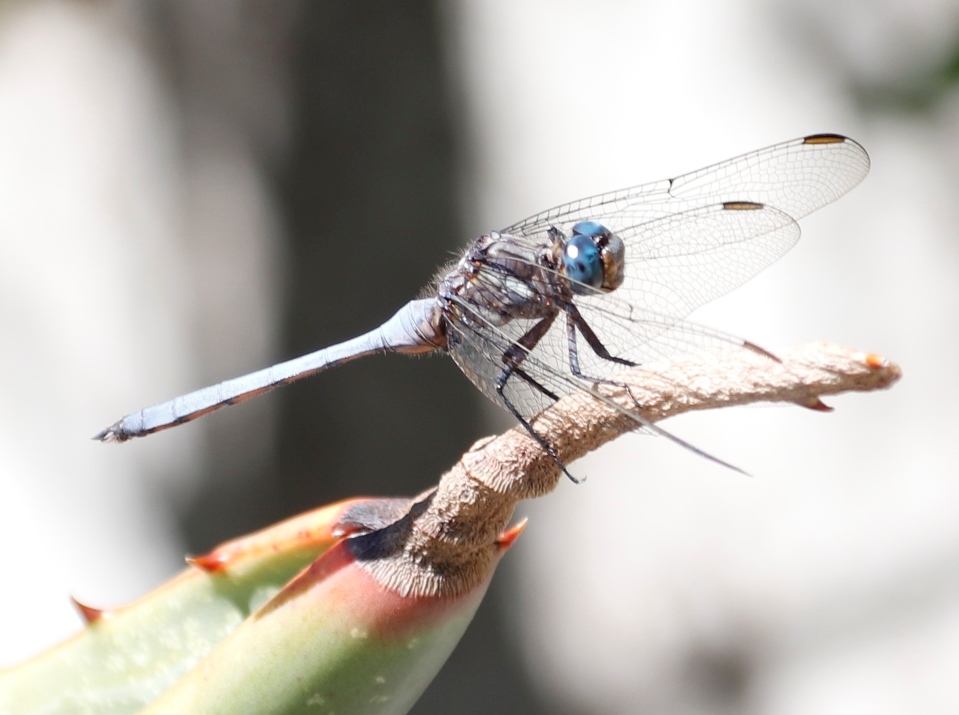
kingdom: Animalia
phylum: Arthropoda
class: Insecta
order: Odonata
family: Libellulidae
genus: Orthetrum
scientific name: Orthetrum julia
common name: Julia skimmer
